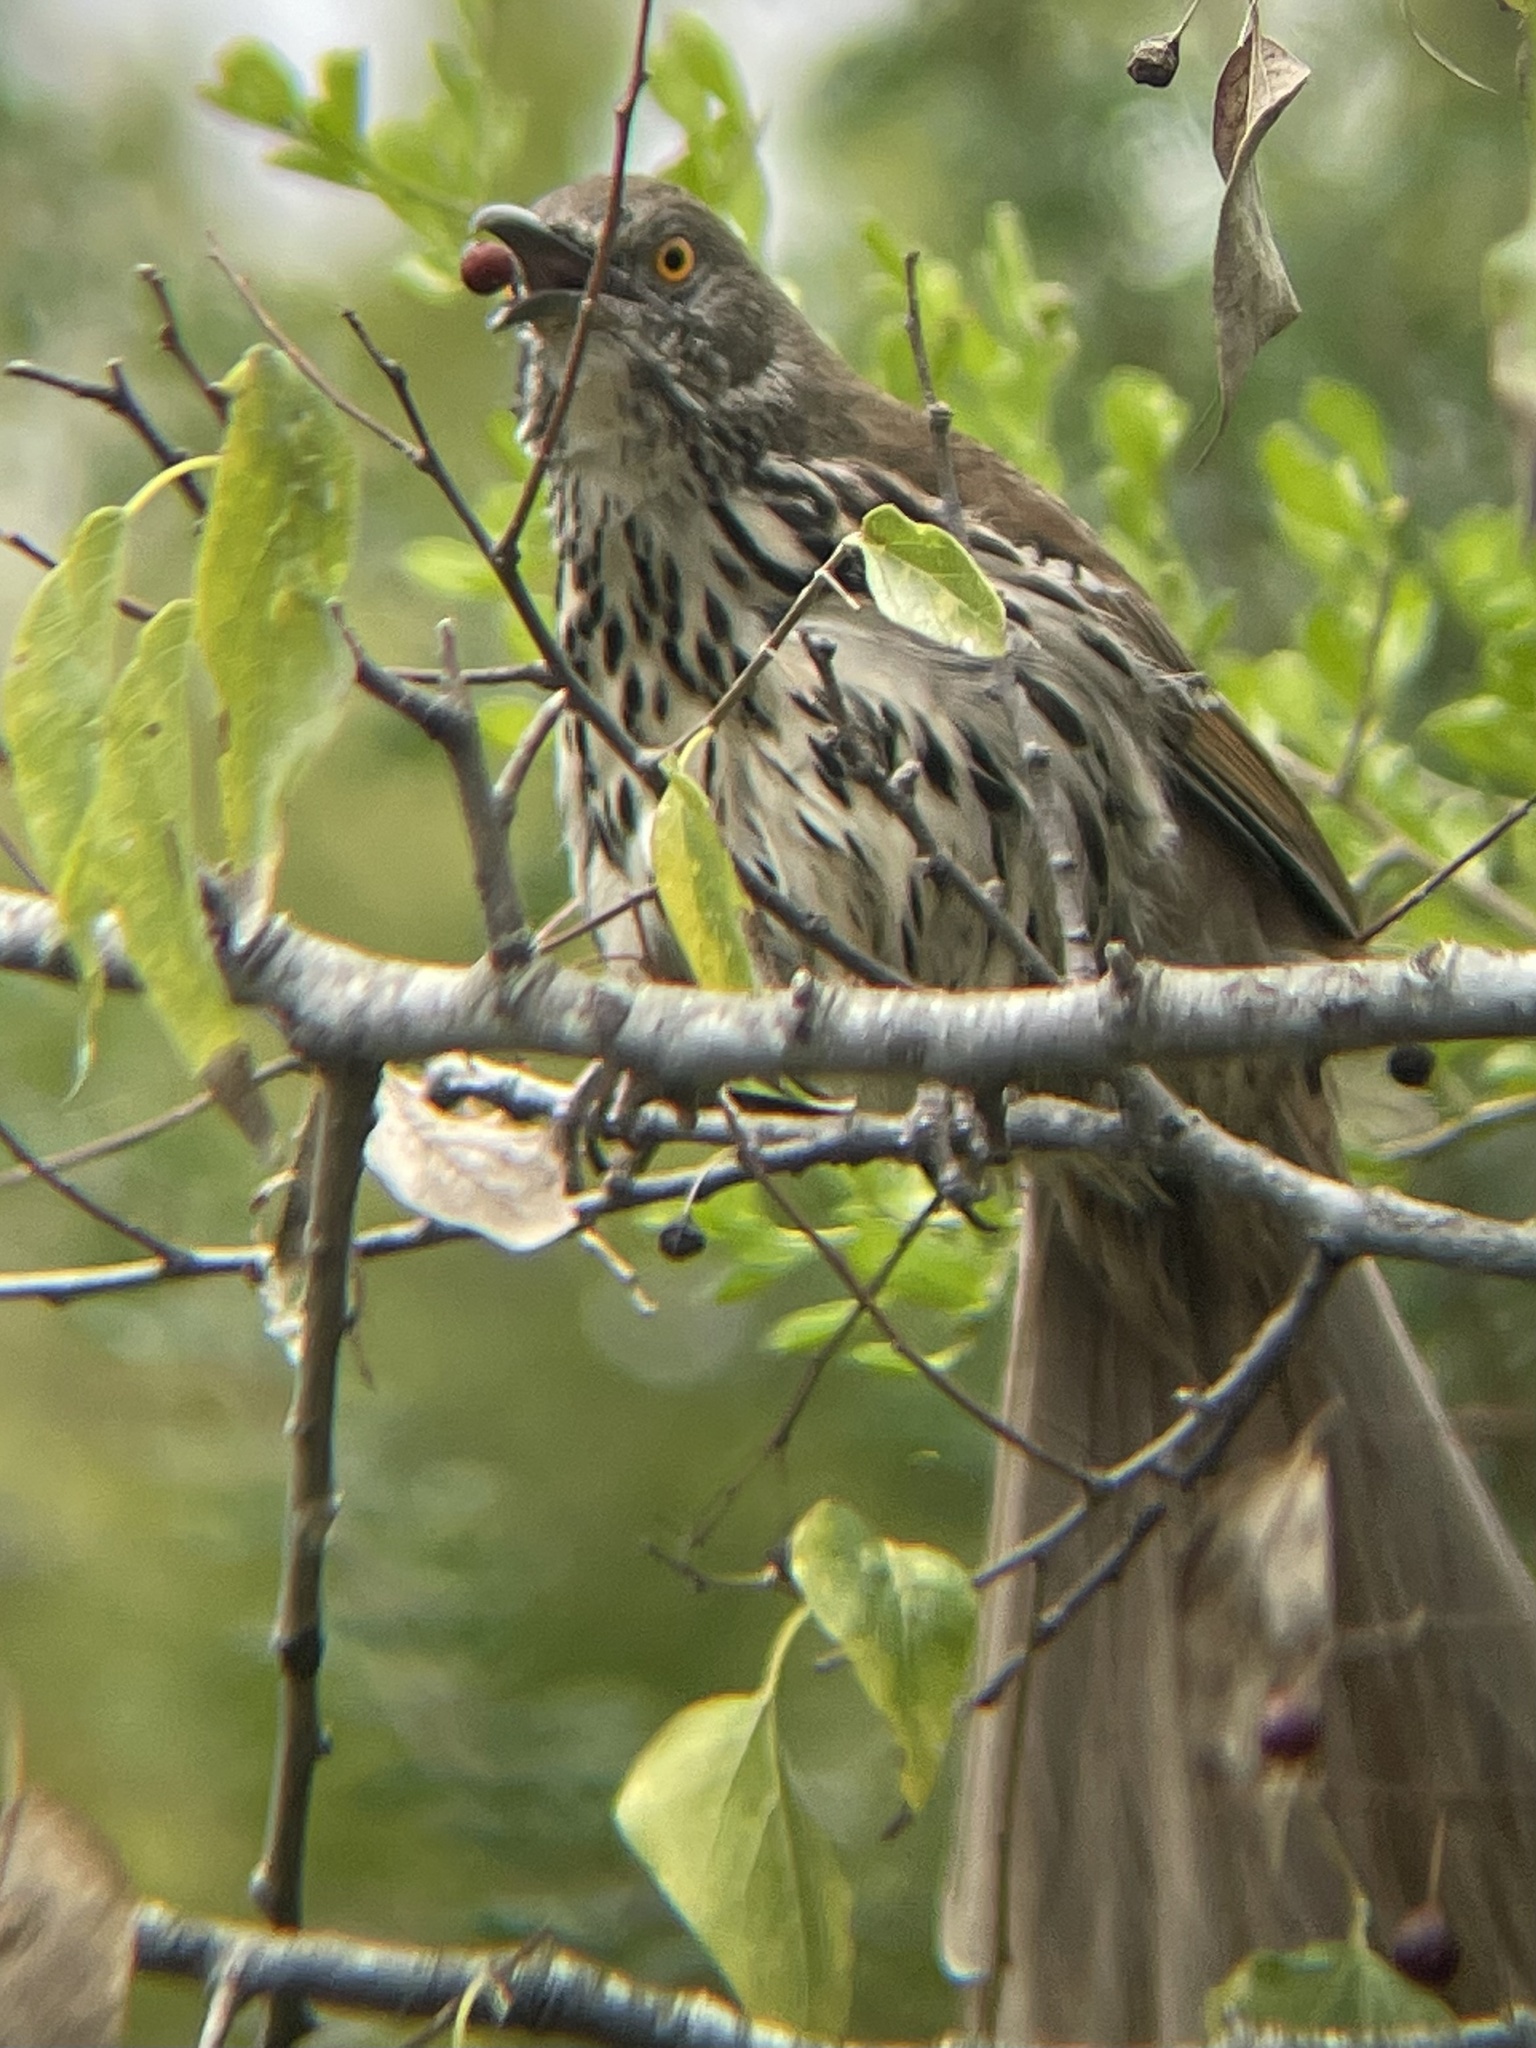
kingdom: Animalia
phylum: Chordata
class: Aves
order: Passeriformes
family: Mimidae
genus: Toxostoma
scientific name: Toxostoma longirostre
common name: Long-billed thrasher
